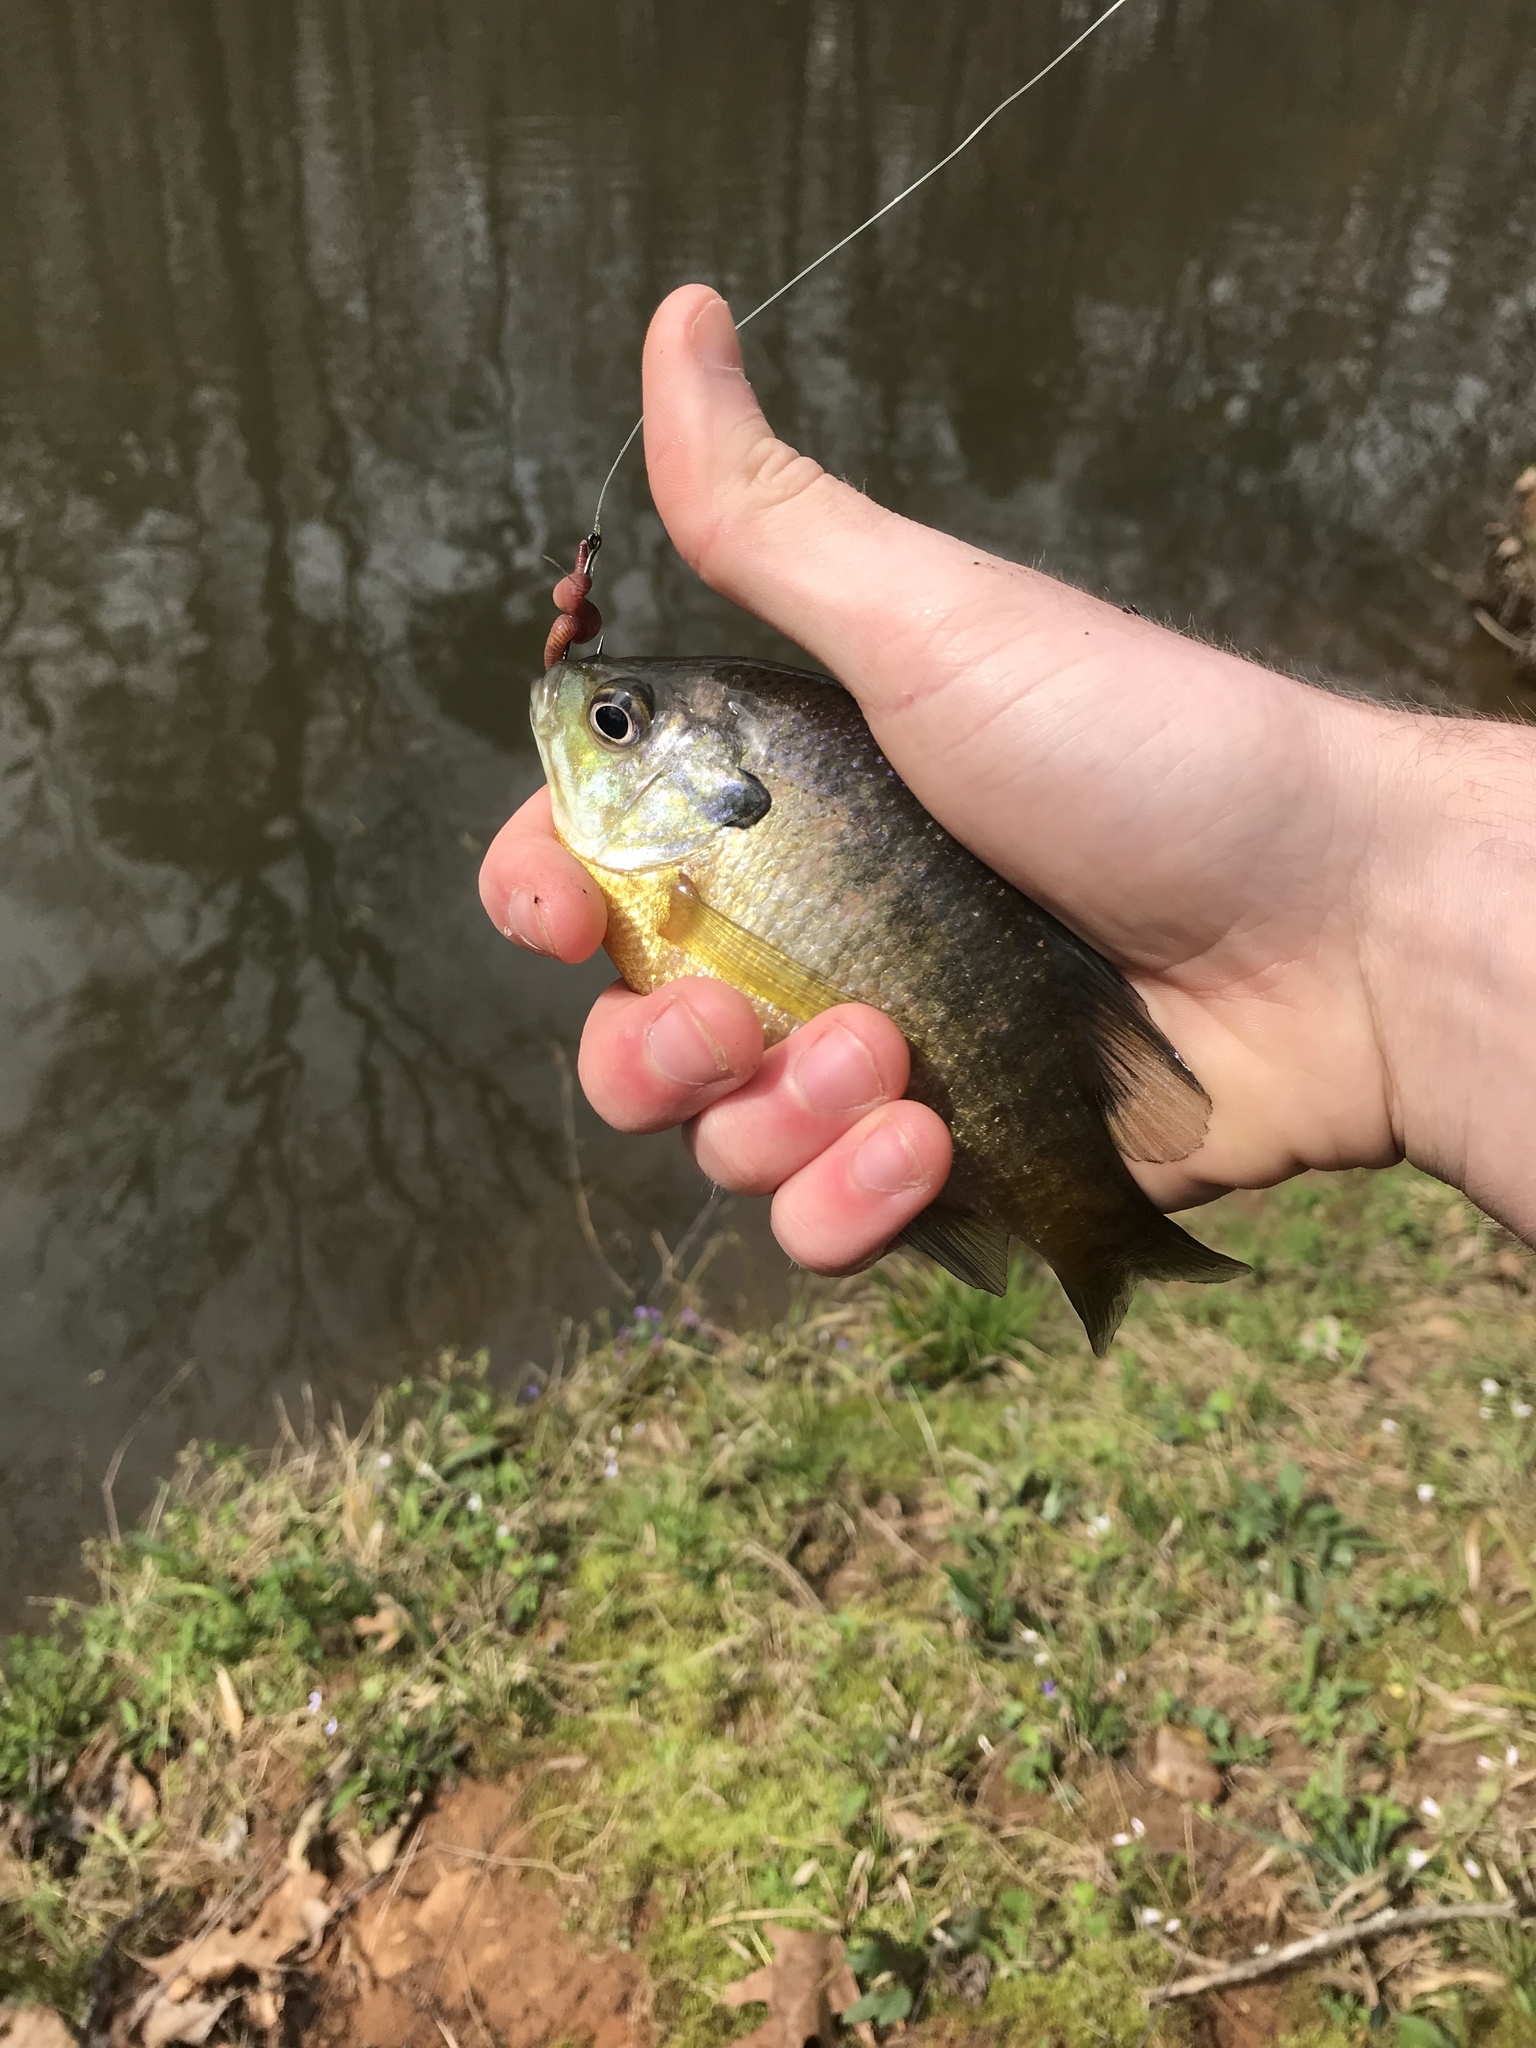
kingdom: Animalia
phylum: Chordata
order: Perciformes
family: Centrarchidae
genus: Lepomis
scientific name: Lepomis macrochirus
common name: Bluegill
